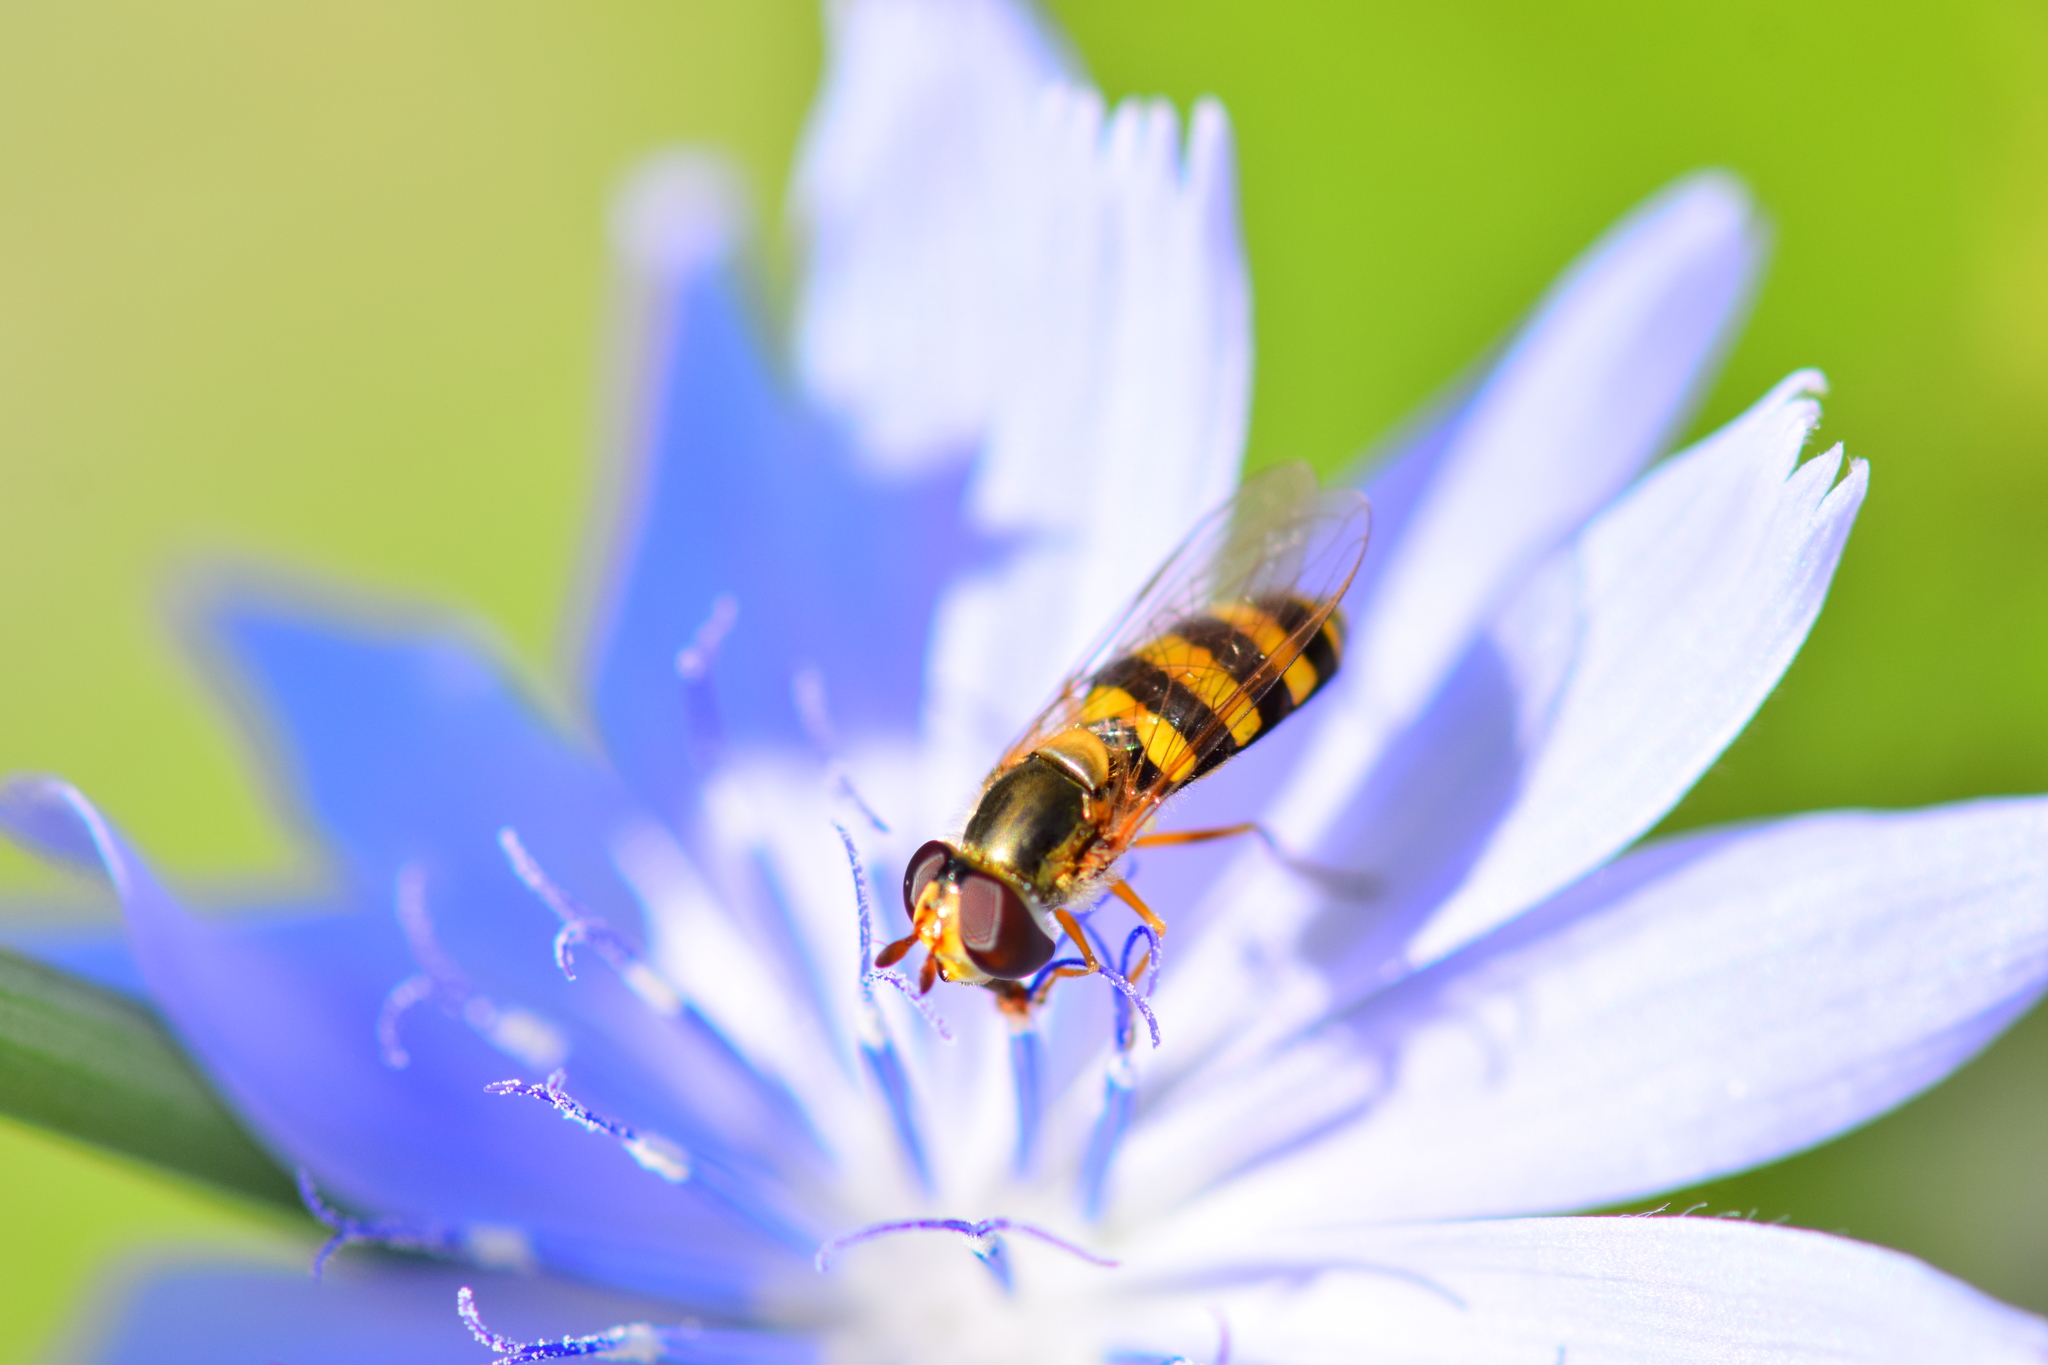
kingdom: Animalia
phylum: Arthropoda
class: Insecta
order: Diptera
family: Syrphidae
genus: Eupeodes
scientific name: Eupeodes
